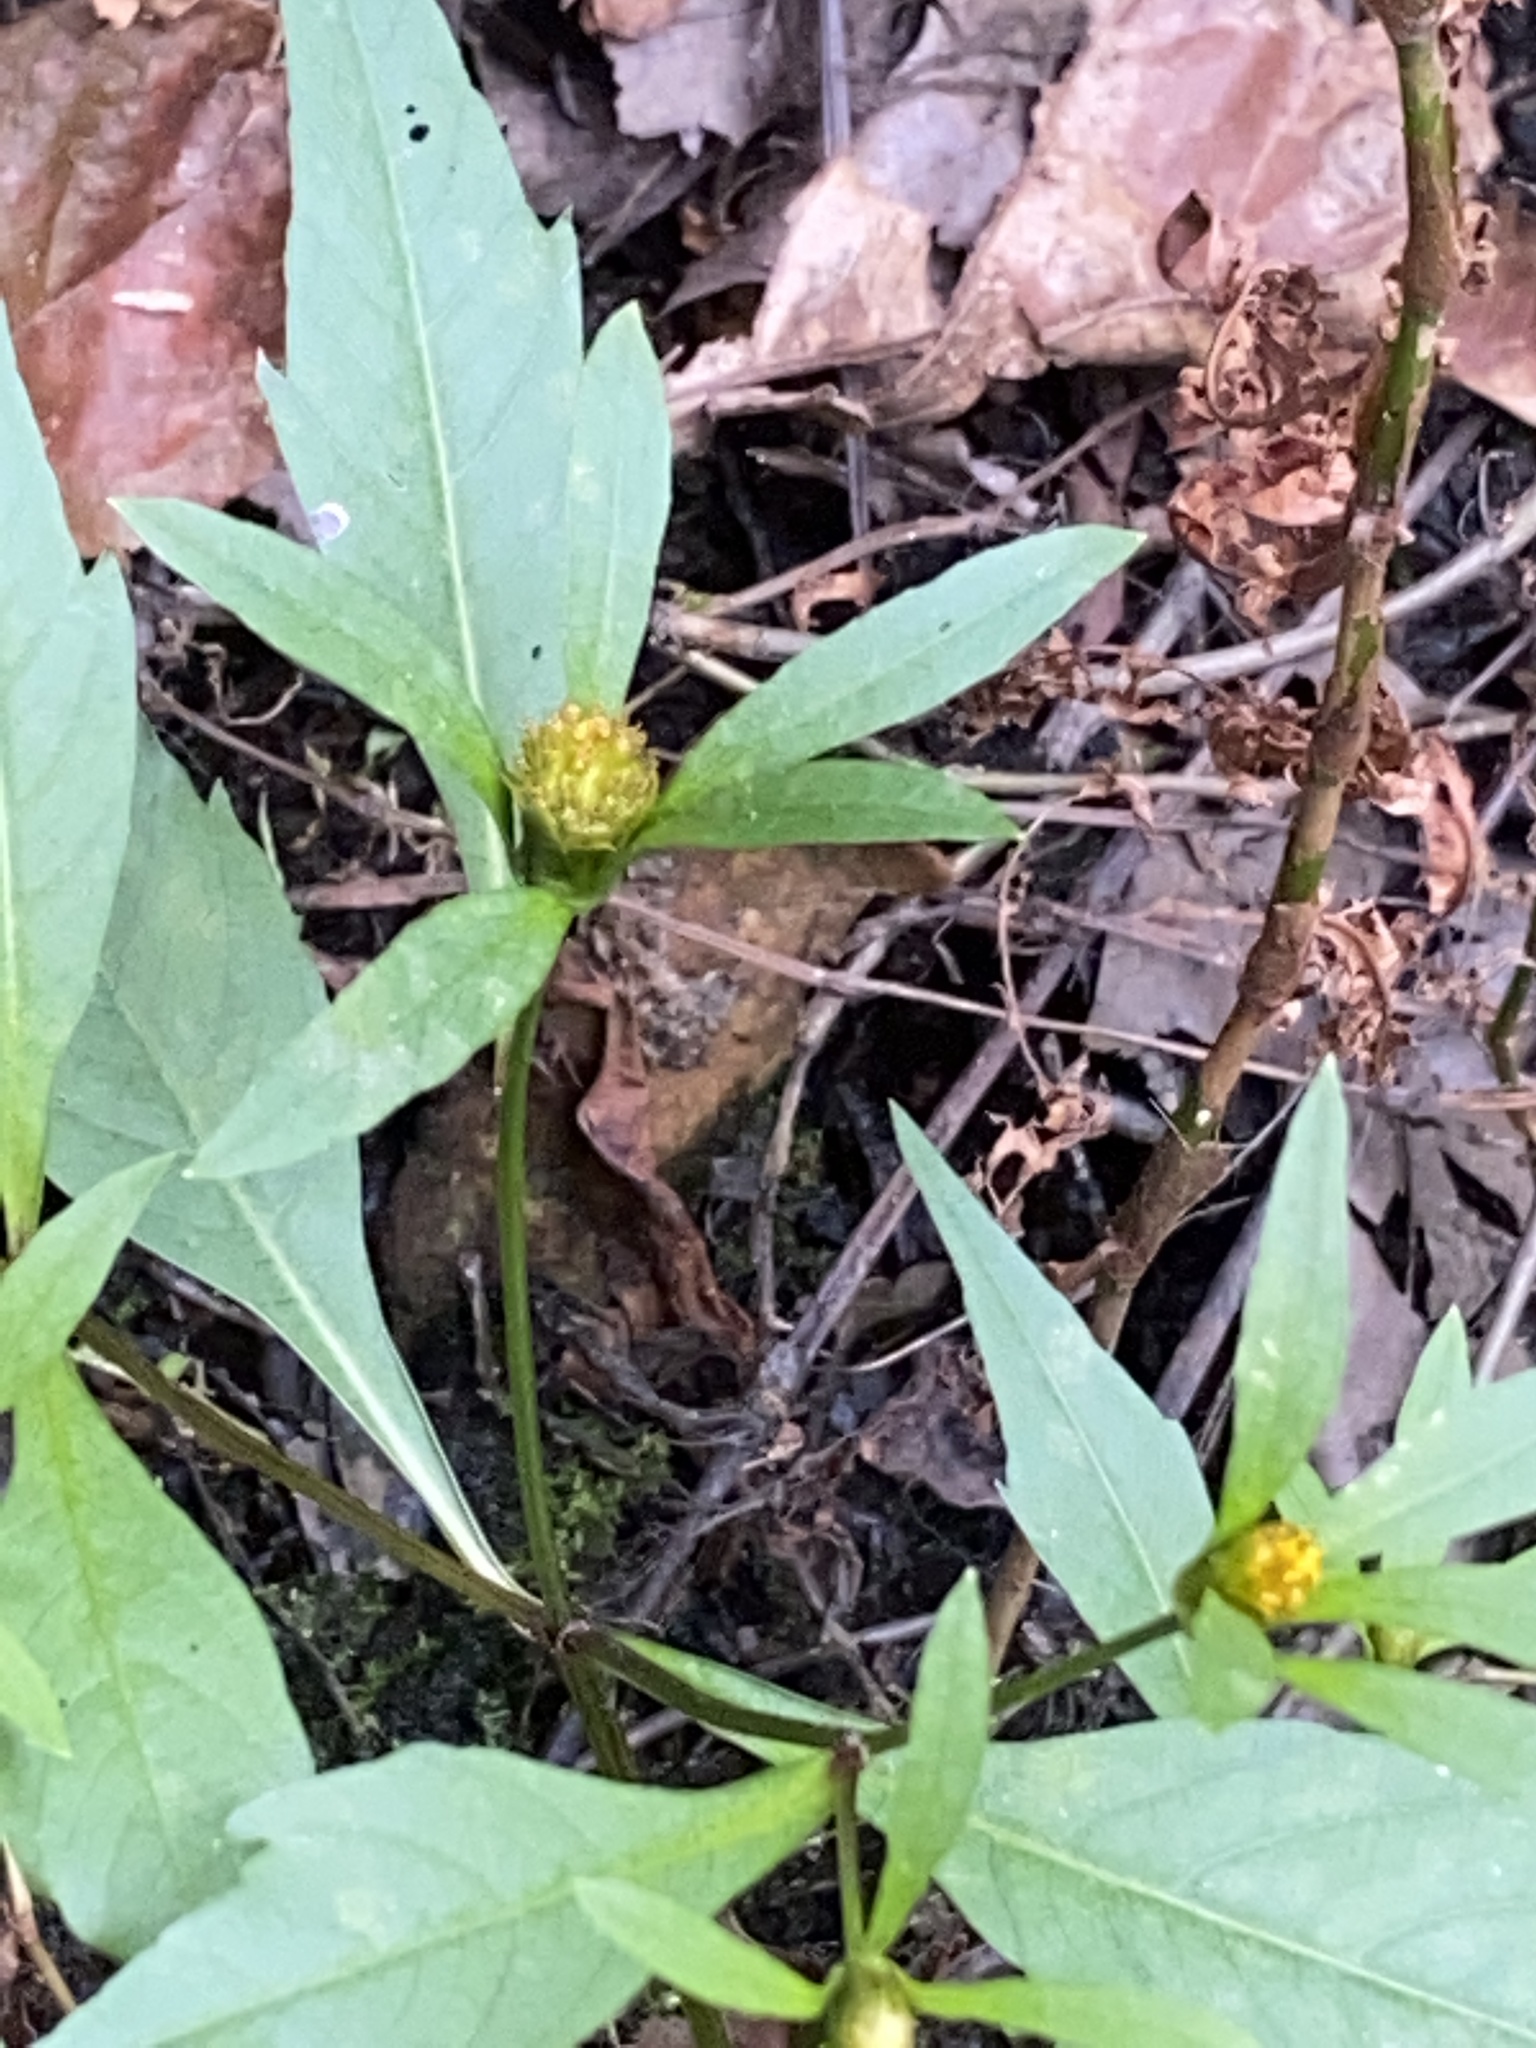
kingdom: Plantae
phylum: Tracheophyta
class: Magnoliopsida
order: Asterales
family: Asteraceae
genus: Bidens
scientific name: Bidens connata
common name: London bur-marigold
